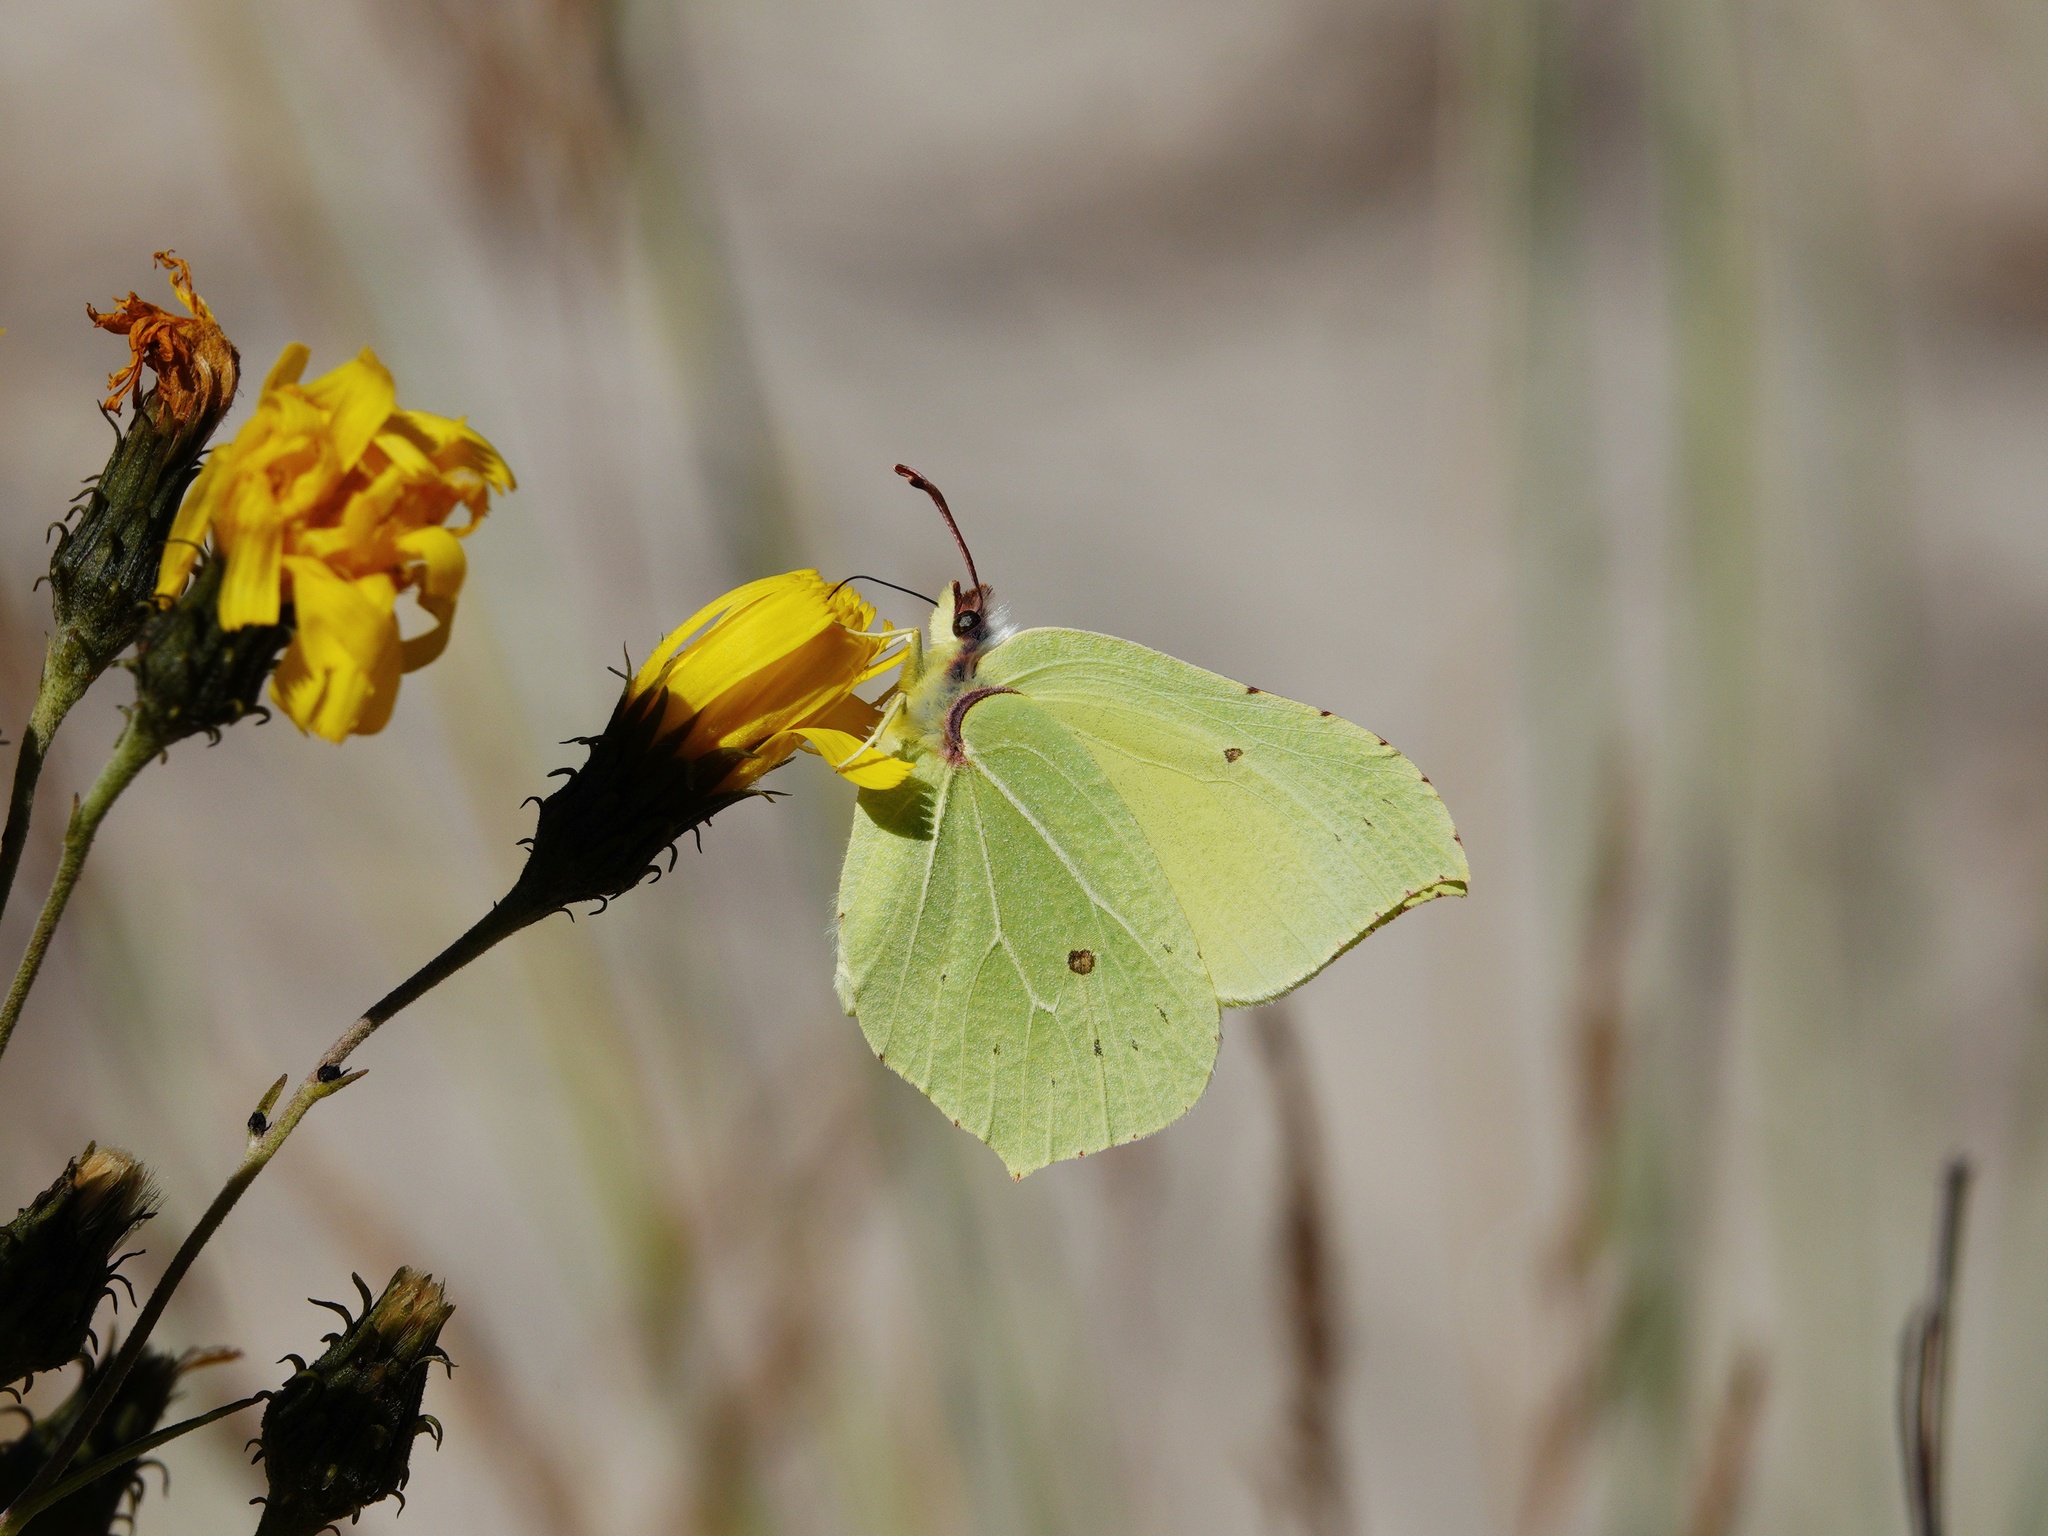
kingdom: Animalia
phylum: Arthropoda
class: Insecta
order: Lepidoptera
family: Pieridae
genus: Gonepteryx
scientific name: Gonepteryx rhamni
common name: Brimstone
